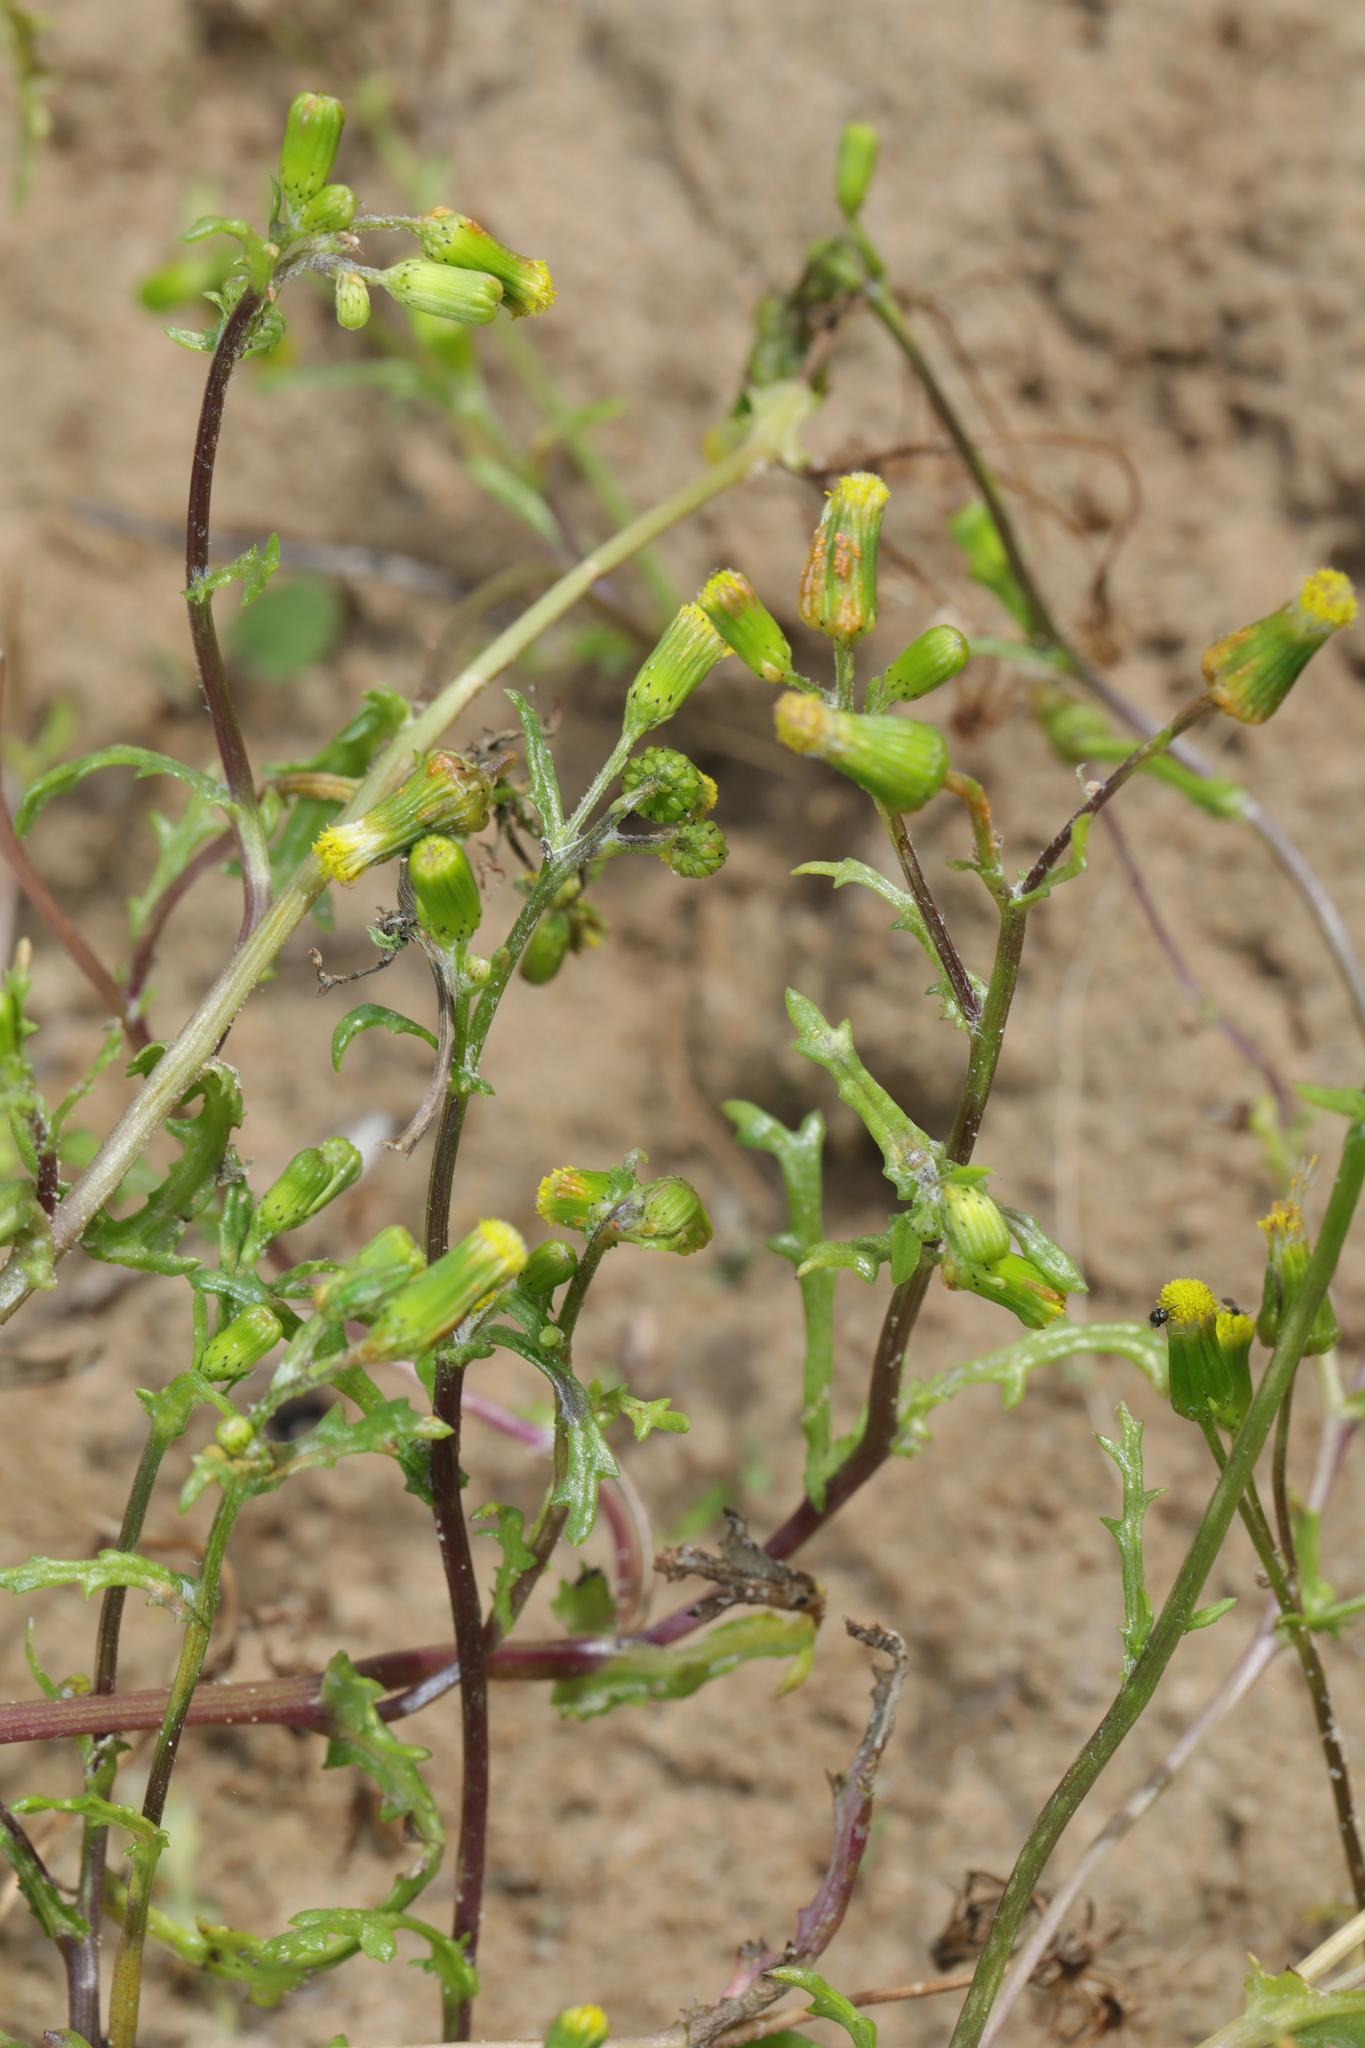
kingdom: Plantae
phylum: Tracheophyta
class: Magnoliopsida
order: Asterales
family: Asteraceae
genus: Senecio
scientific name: Senecio vulgaris
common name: Old-man-in-the-spring
